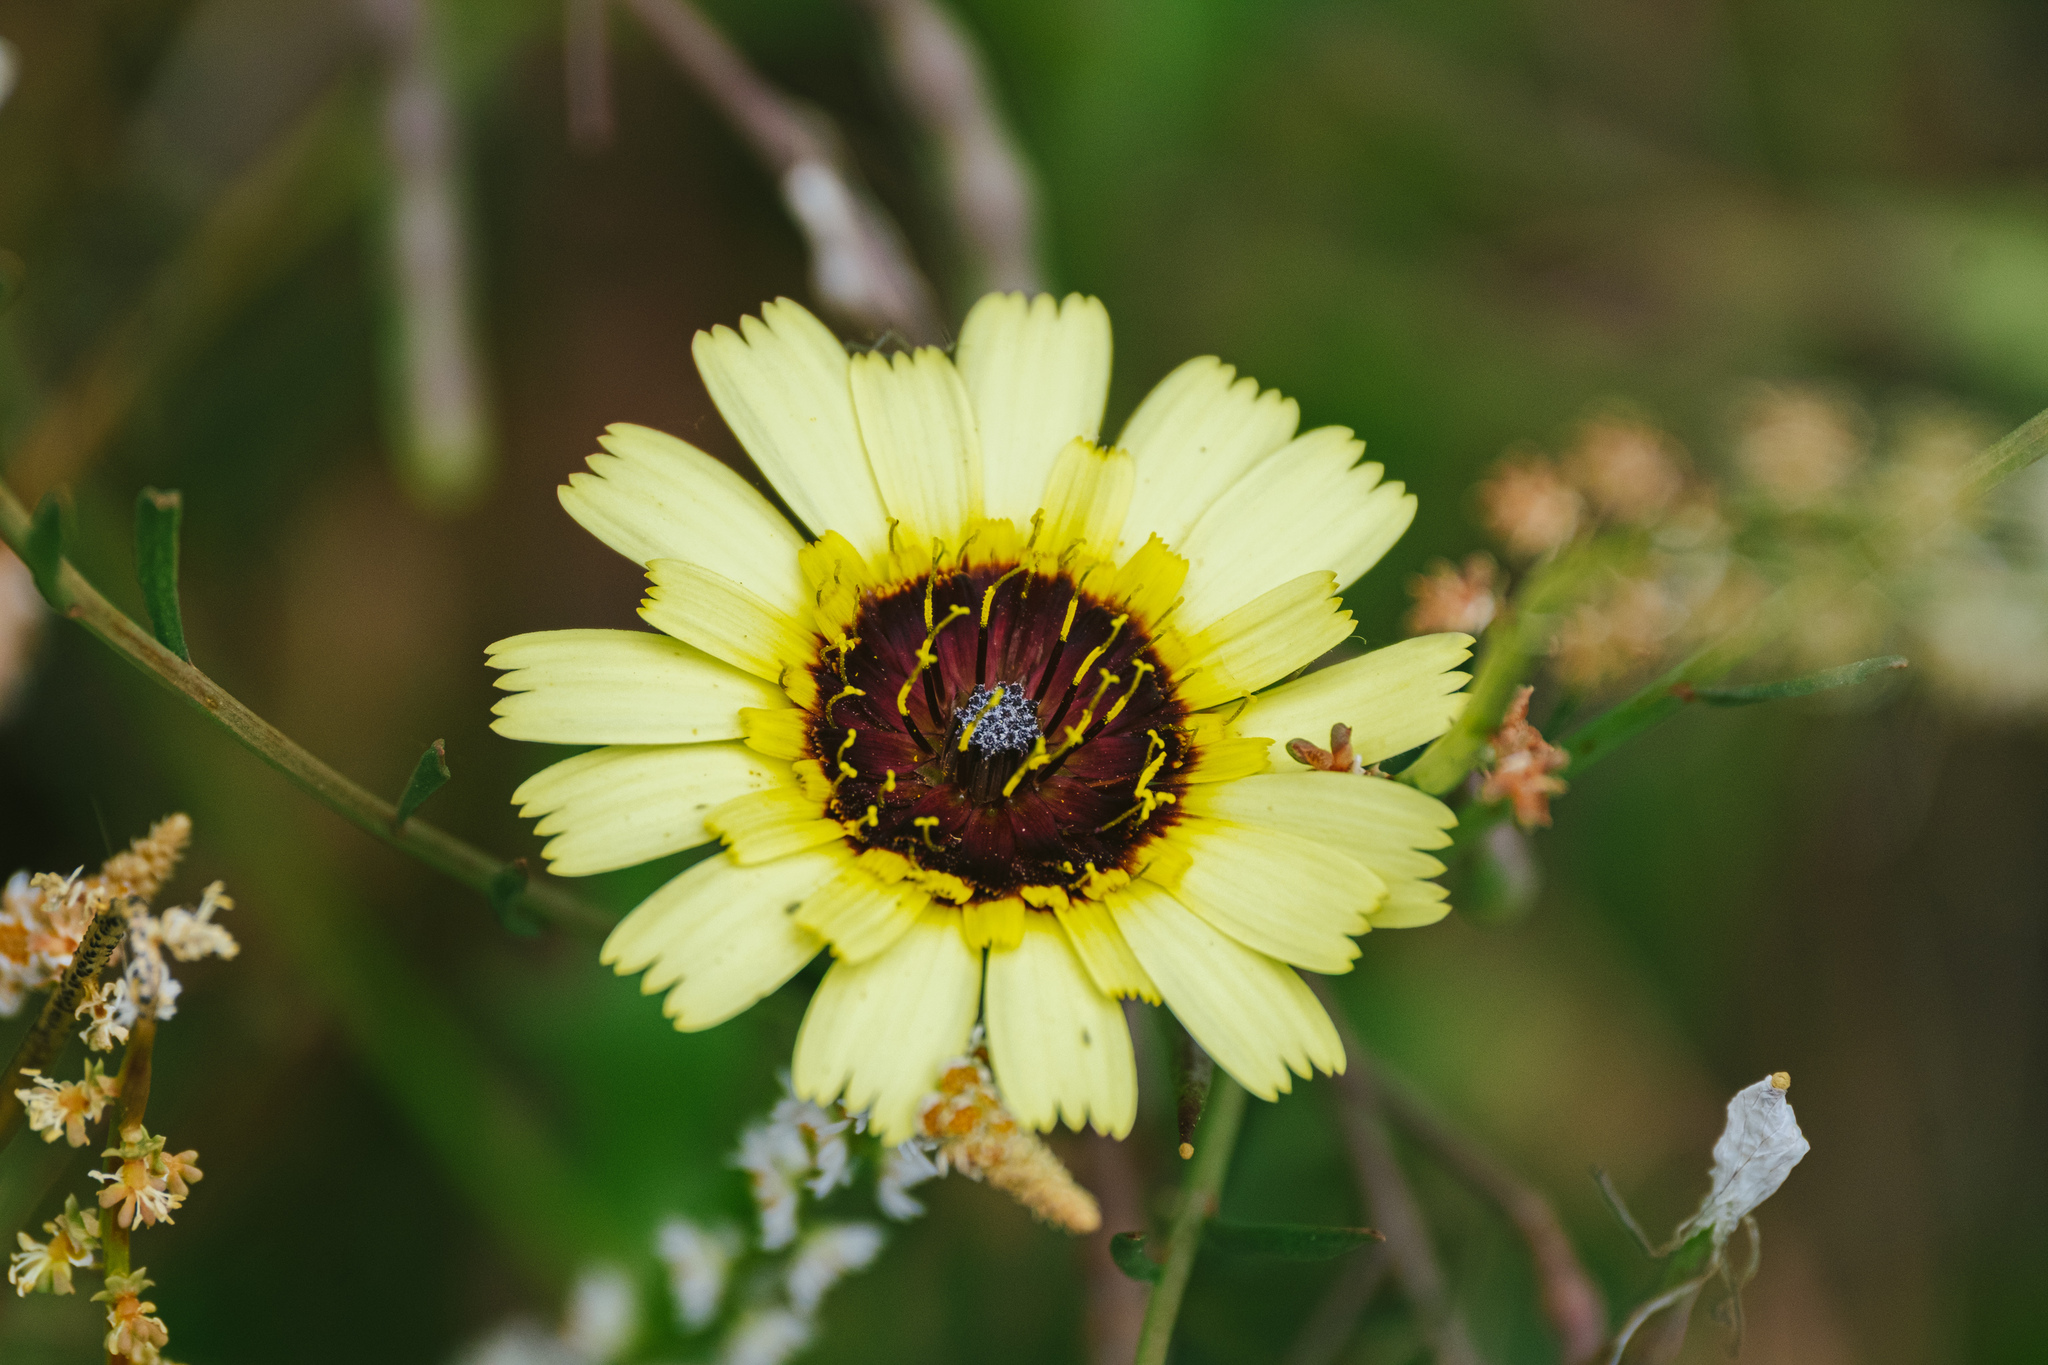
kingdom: Plantae
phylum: Tracheophyta
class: Magnoliopsida
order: Asterales
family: Asteraceae
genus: Tolpis
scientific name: Tolpis barbata
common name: Yellow hawkweed
